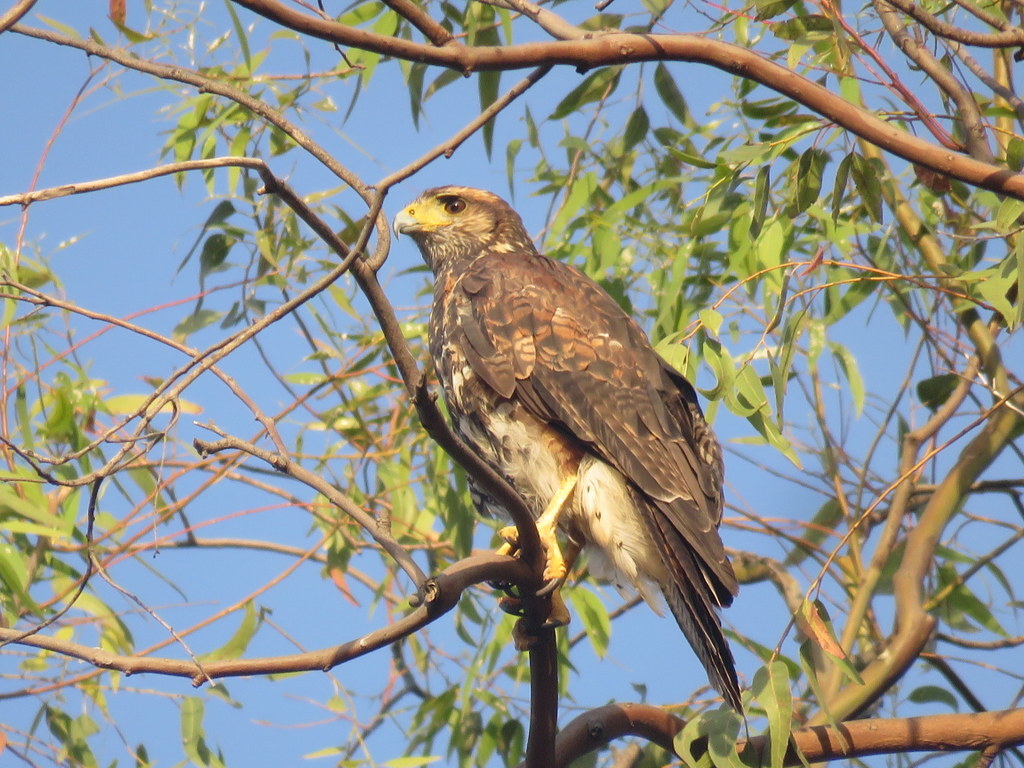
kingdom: Animalia
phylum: Chordata
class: Aves
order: Accipitriformes
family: Accipitridae
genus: Parabuteo
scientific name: Parabuteo unicinctus
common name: Harris's hawk
